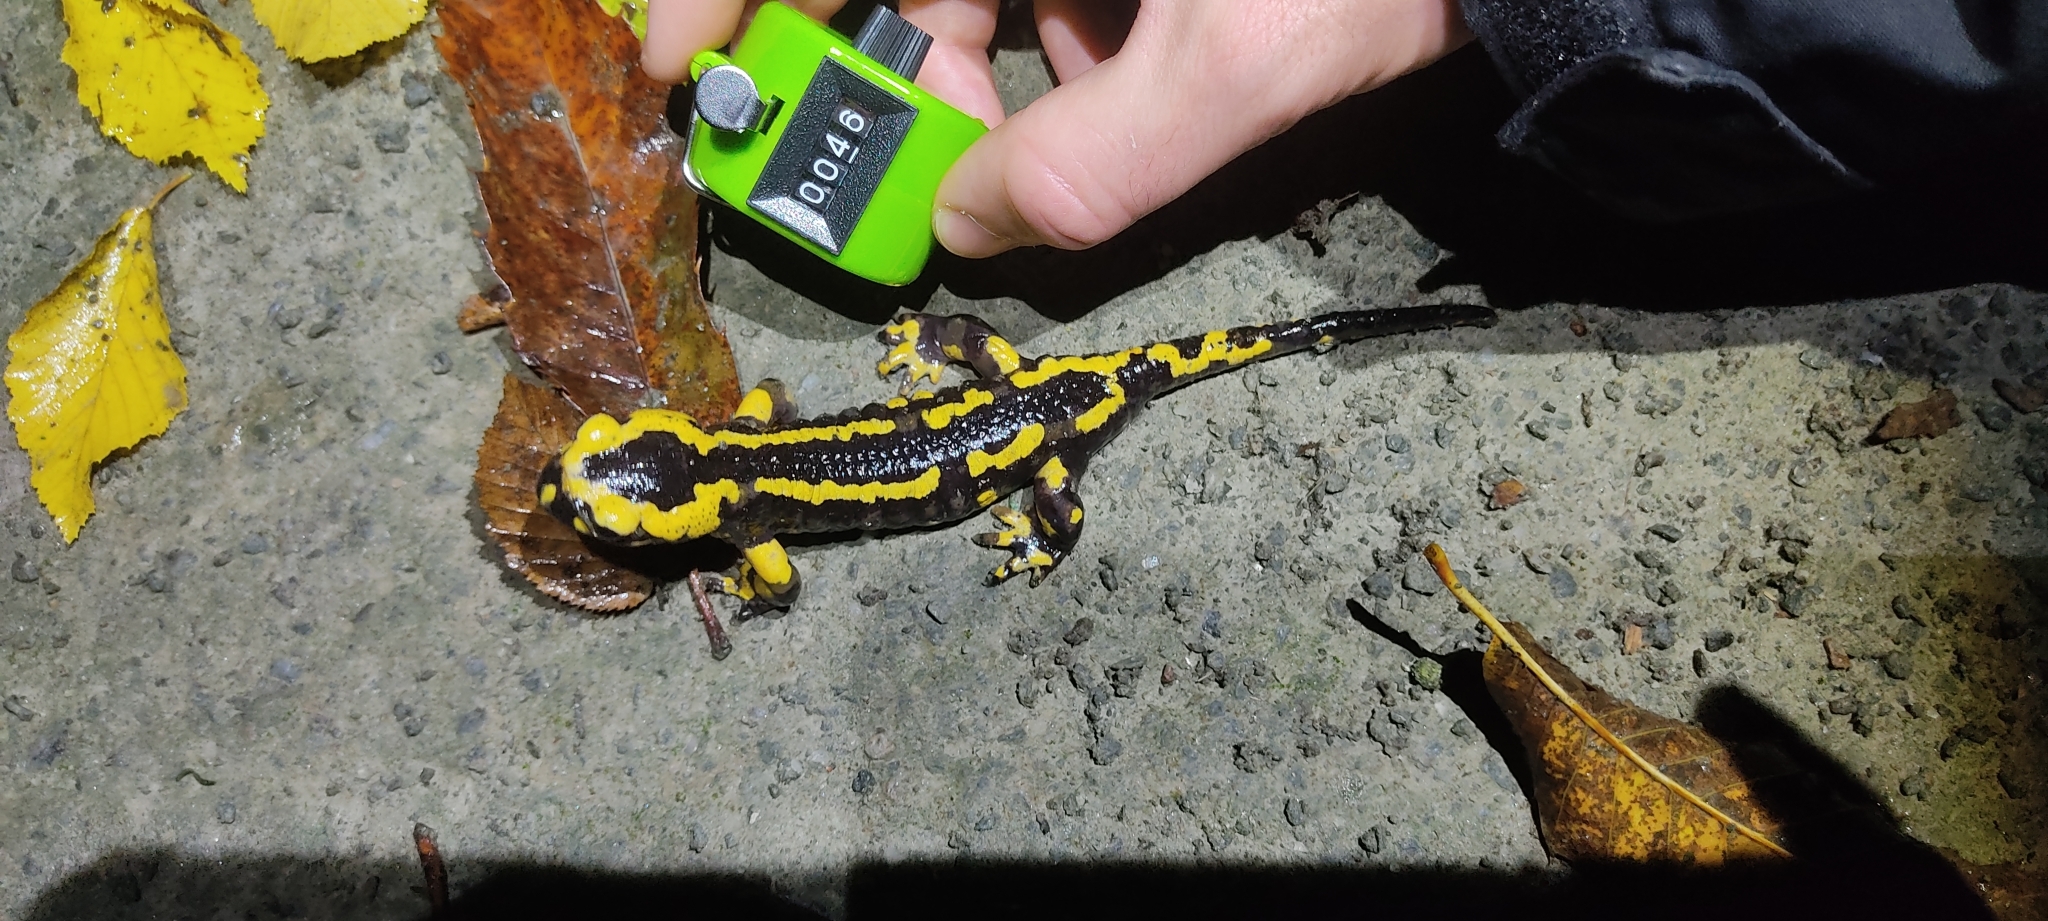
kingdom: Animalia
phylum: Chordata
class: Amphibia
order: Caudata
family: Salamandridae
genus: Salamandra
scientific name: Salamandra salamandra
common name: Fire salamander
